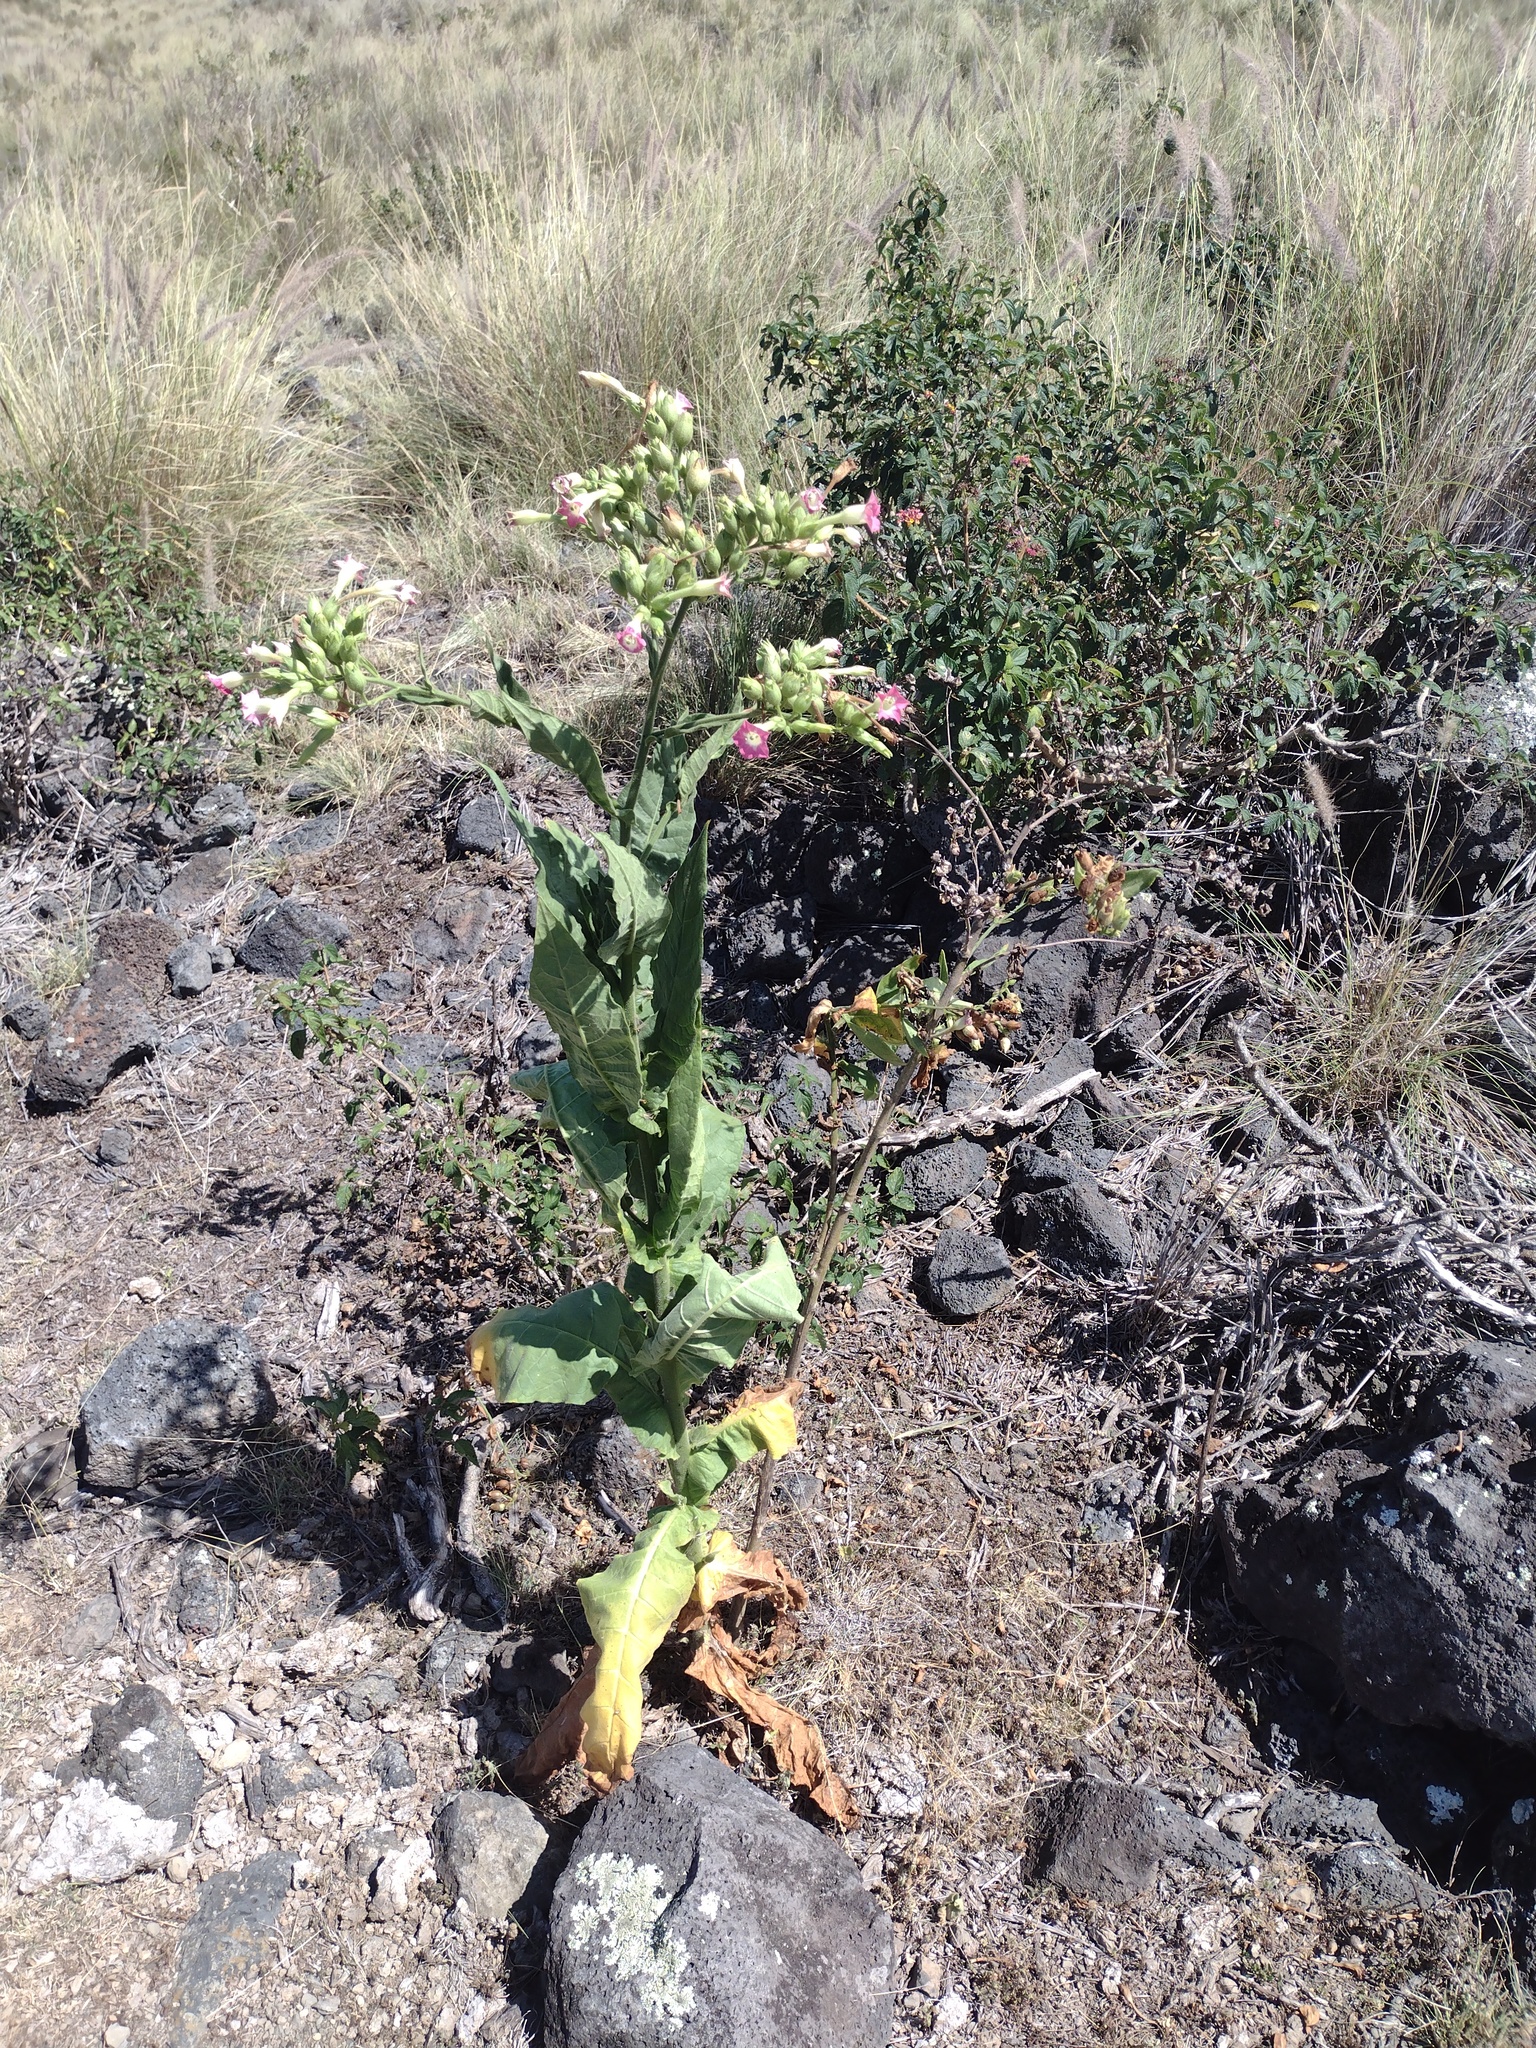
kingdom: Plantae
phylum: Tracheophyta
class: Magnoliopsida
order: Solanales
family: Solanaceae
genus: Nicotiana
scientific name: Nicotiana tabacum
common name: Tobacco
